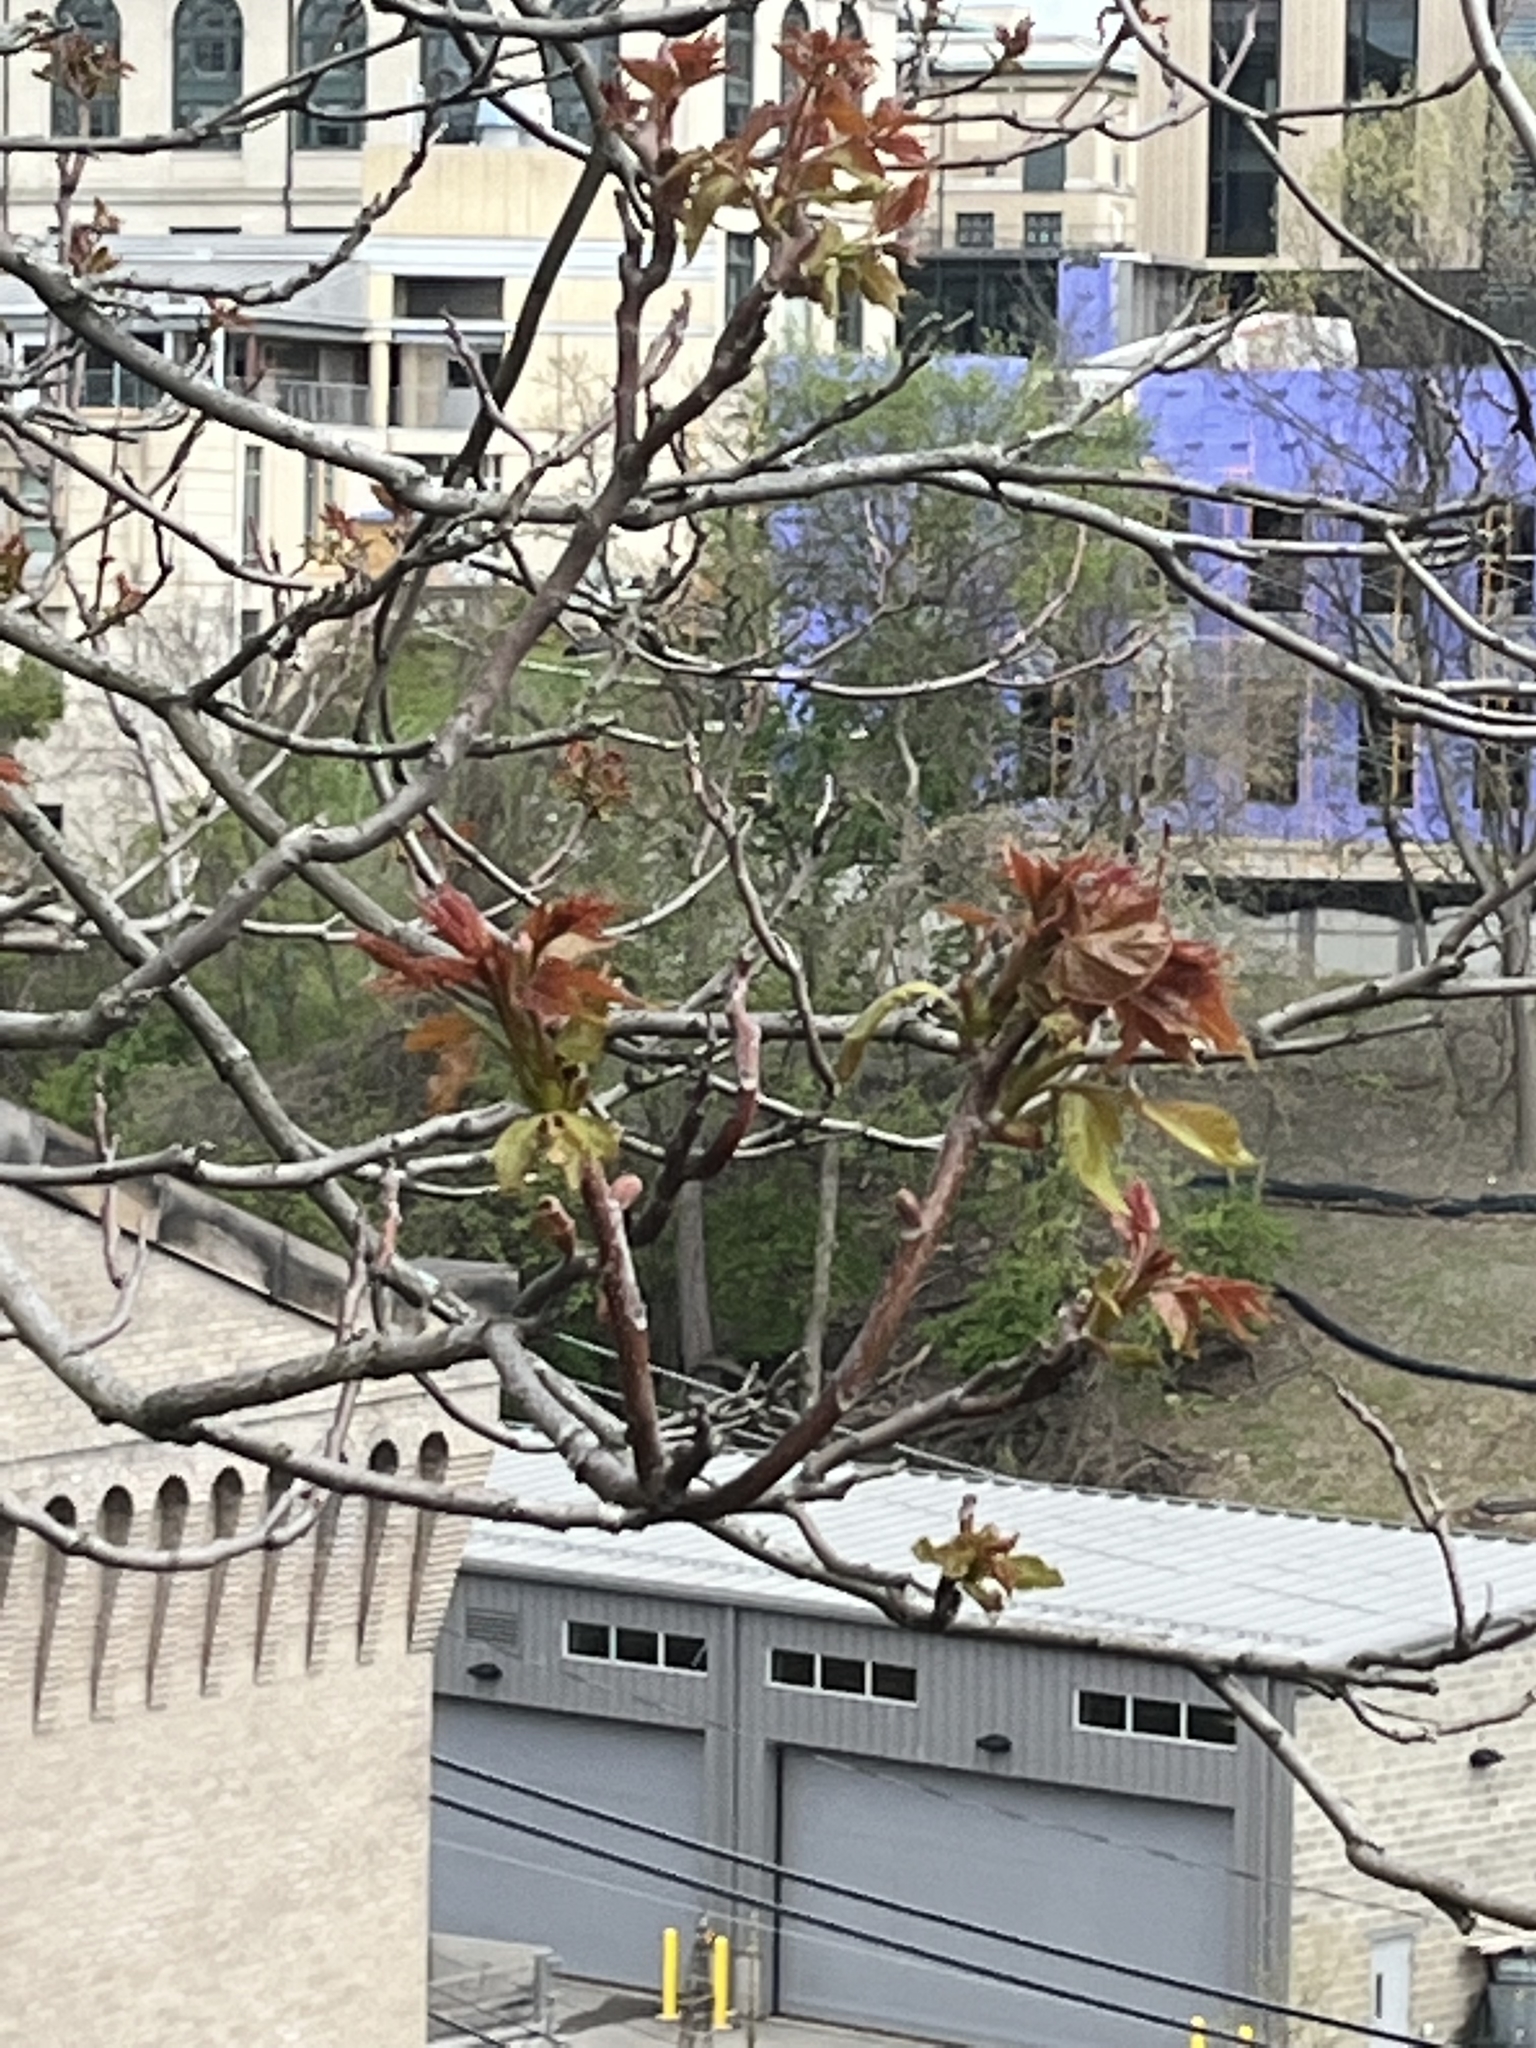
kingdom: Plantae
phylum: Tracheophyta
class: Magnoliopsida
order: Sapindales
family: Simaroubaceae
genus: Ailanthus
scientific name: Ailanthus altissima
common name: Tree-of-heaven
